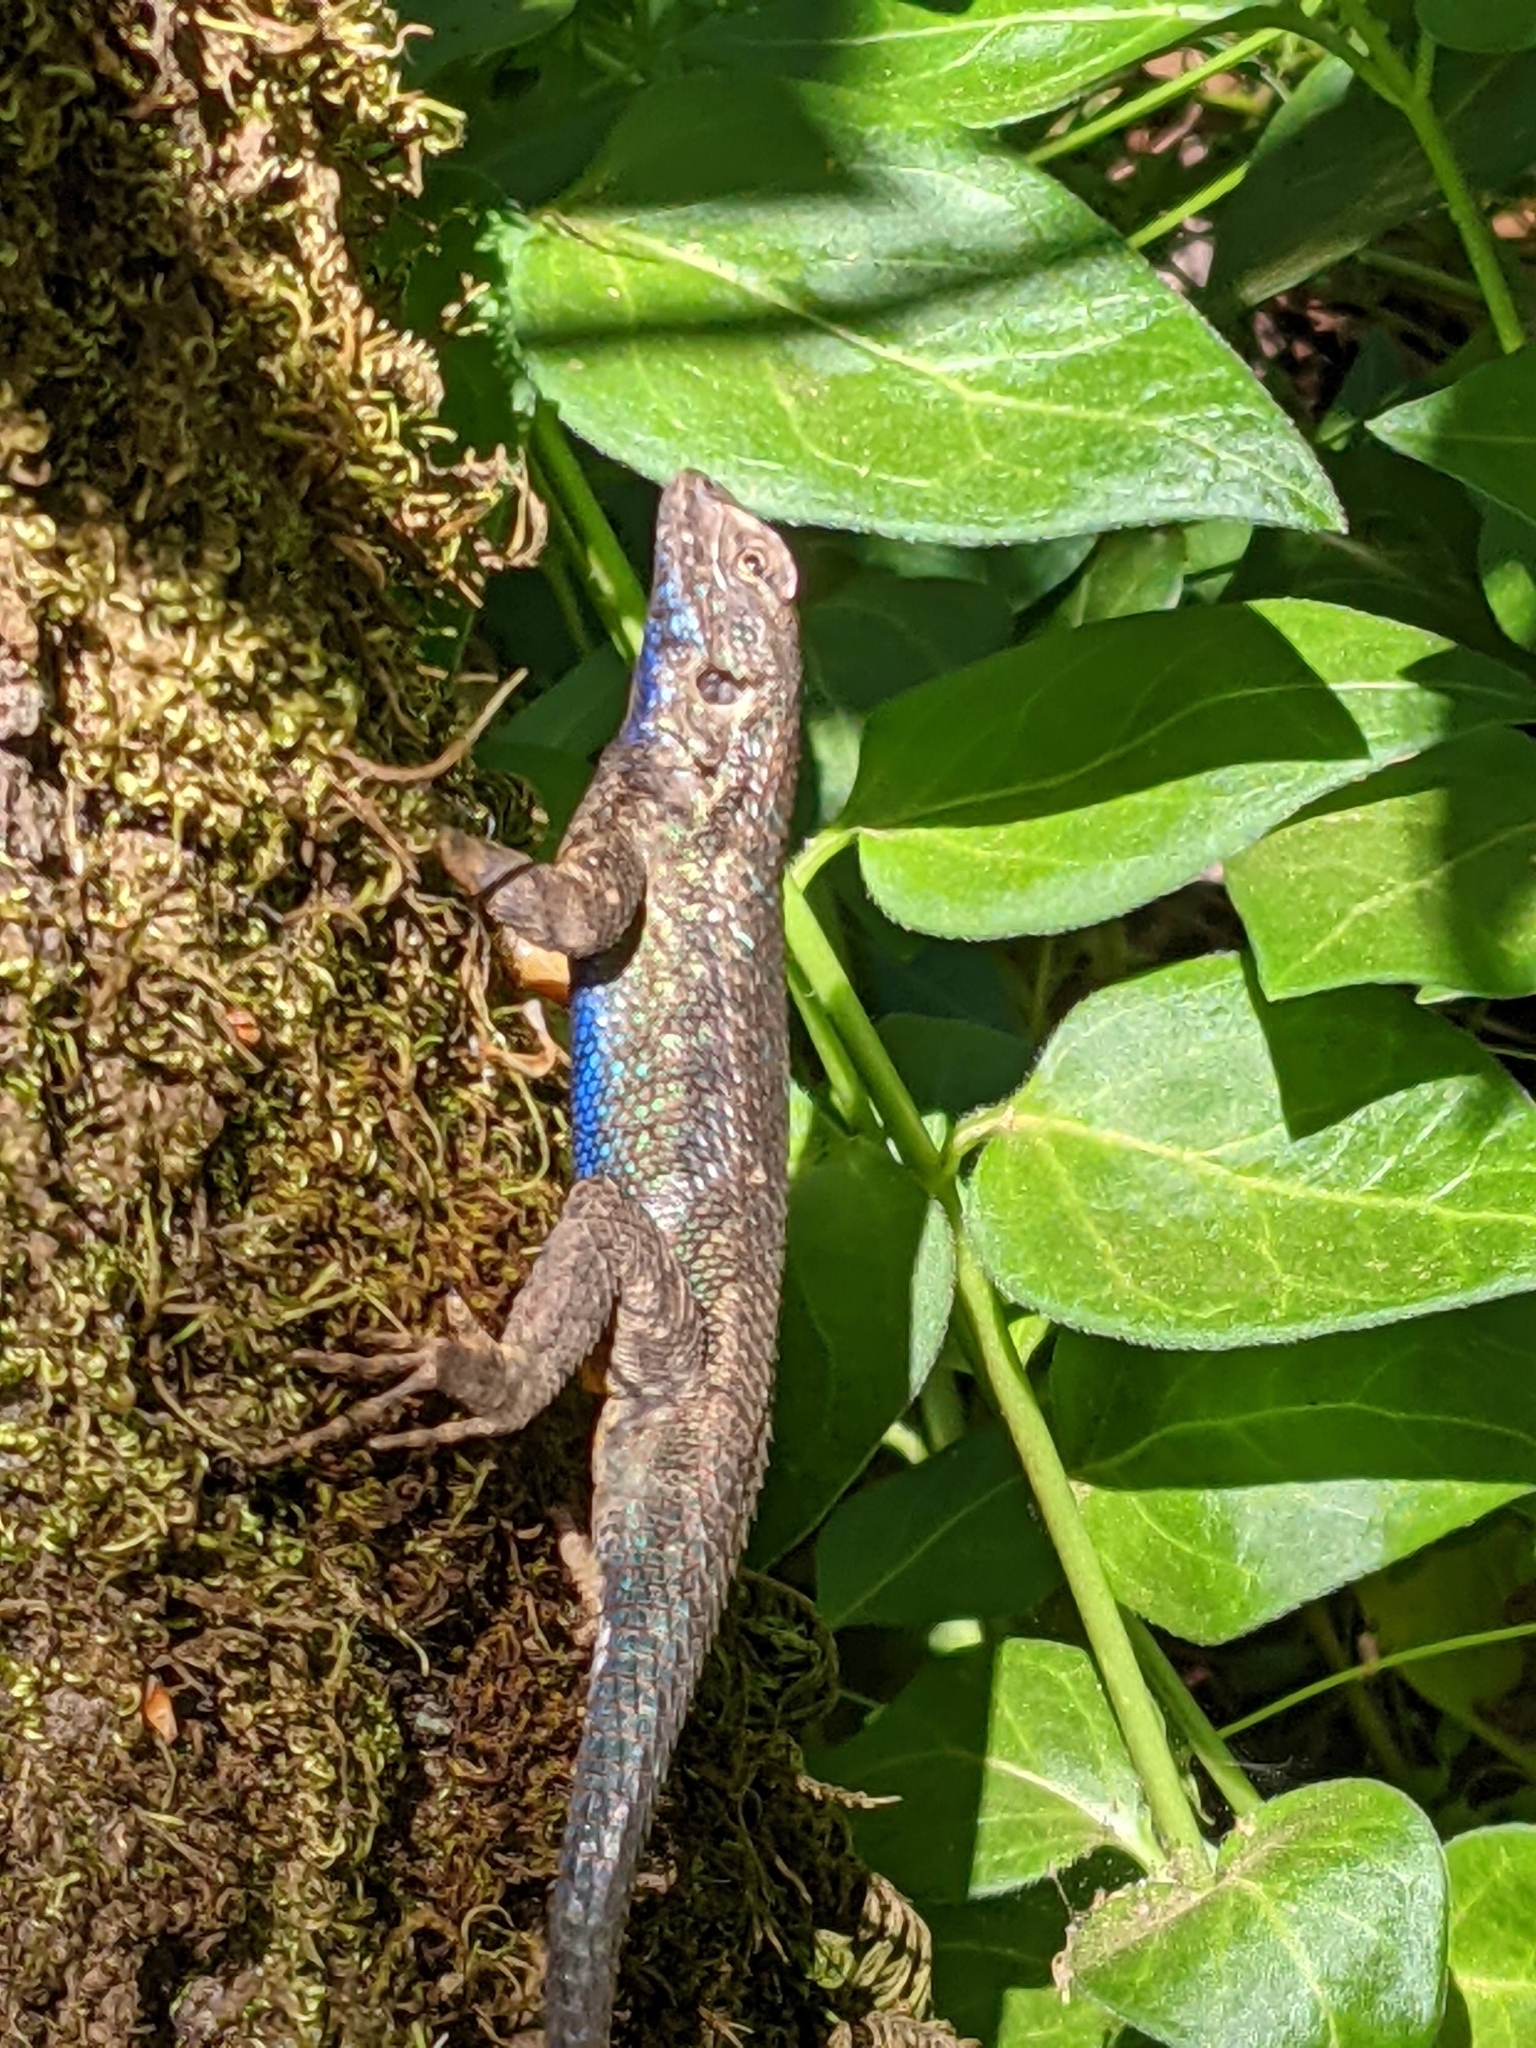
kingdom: Animalia
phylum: Chordata
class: Squamata
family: Phrynosomatidae
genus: Sceloporus
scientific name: Sceloporus occidentalis
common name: Western fence lizard
